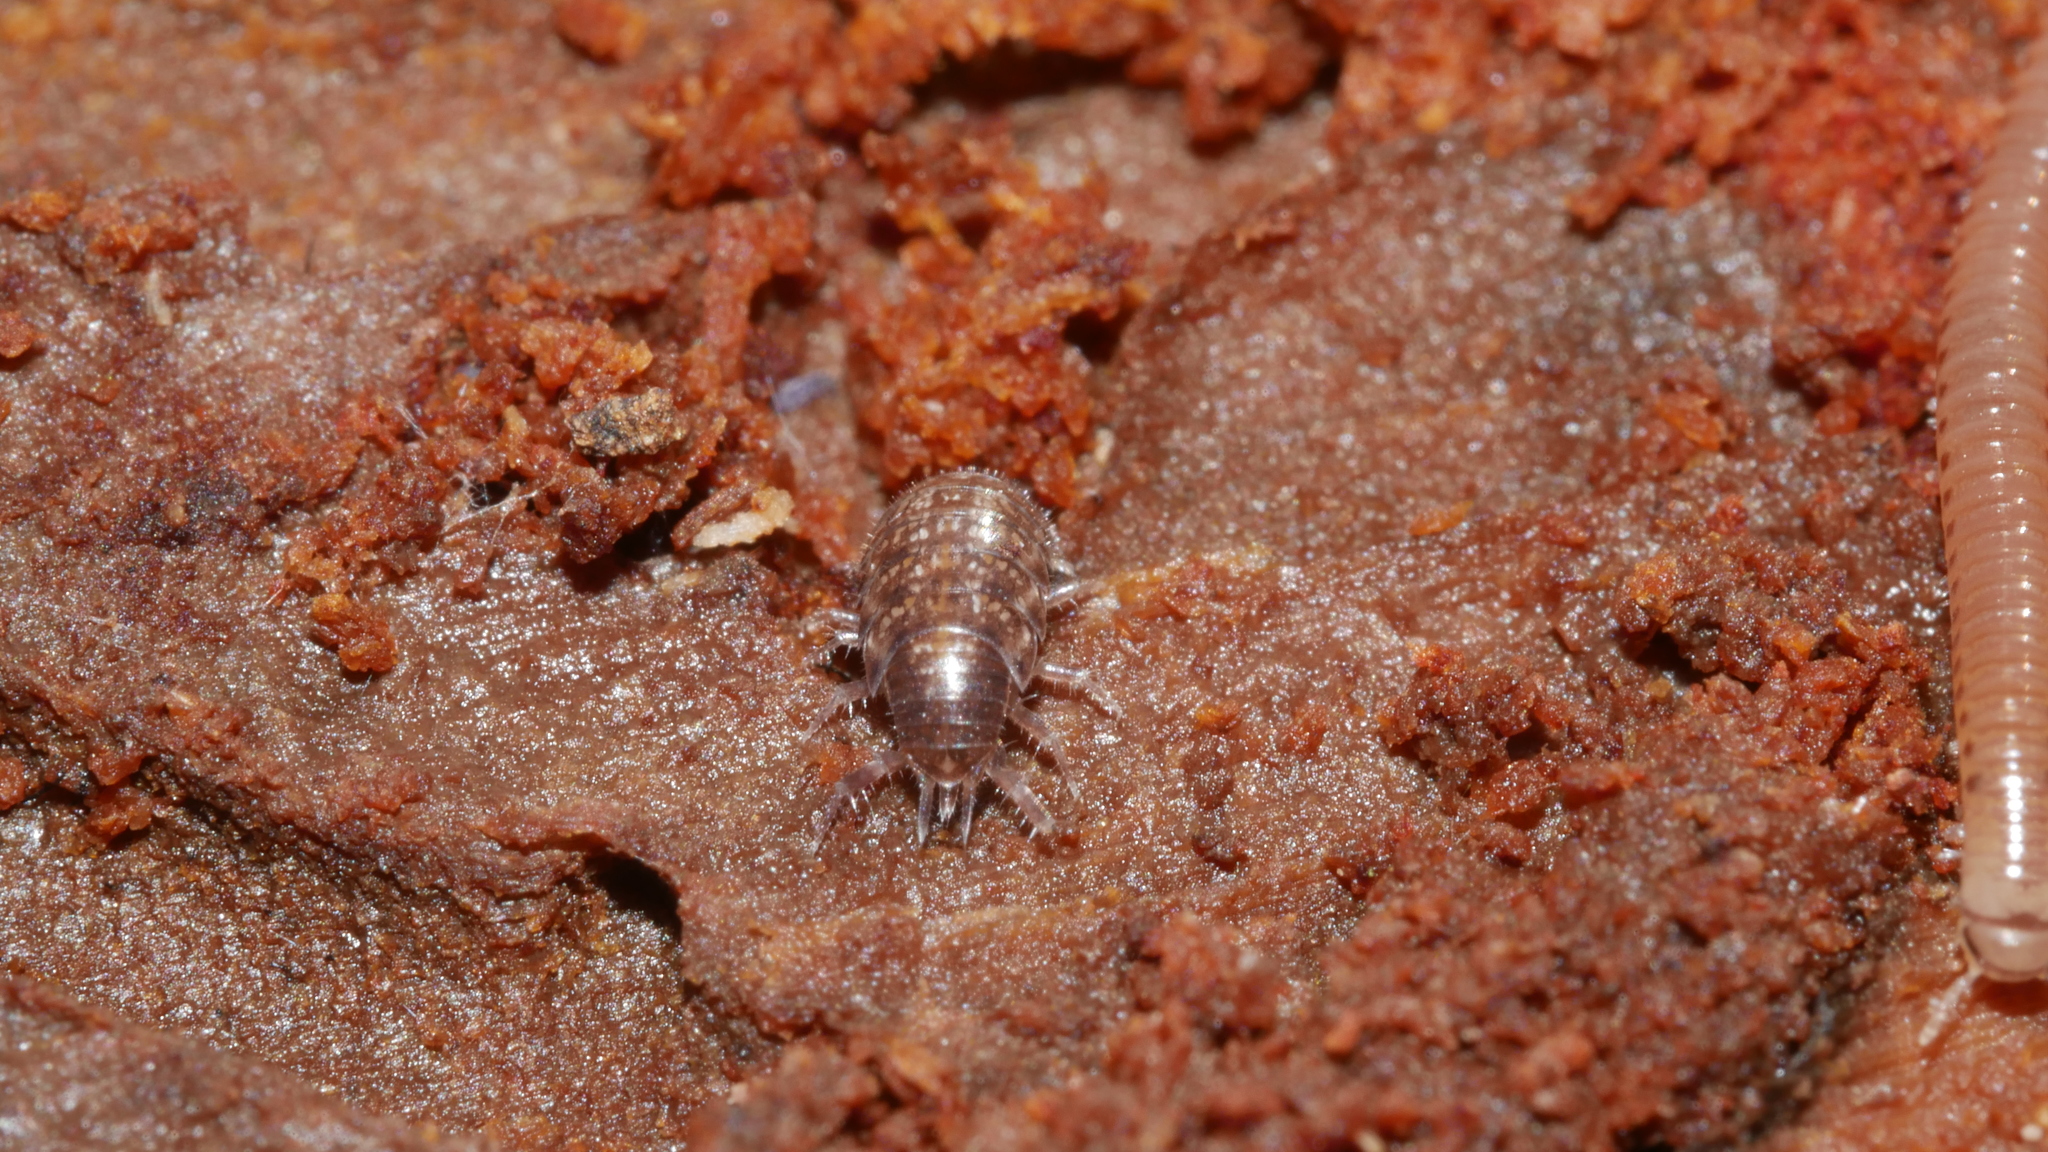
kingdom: Animalia
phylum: Arthropoda
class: Malacostraca
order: Isopoda
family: Philosciidae
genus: Chaetophiloscia
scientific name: Chaetophiloscia sicula
